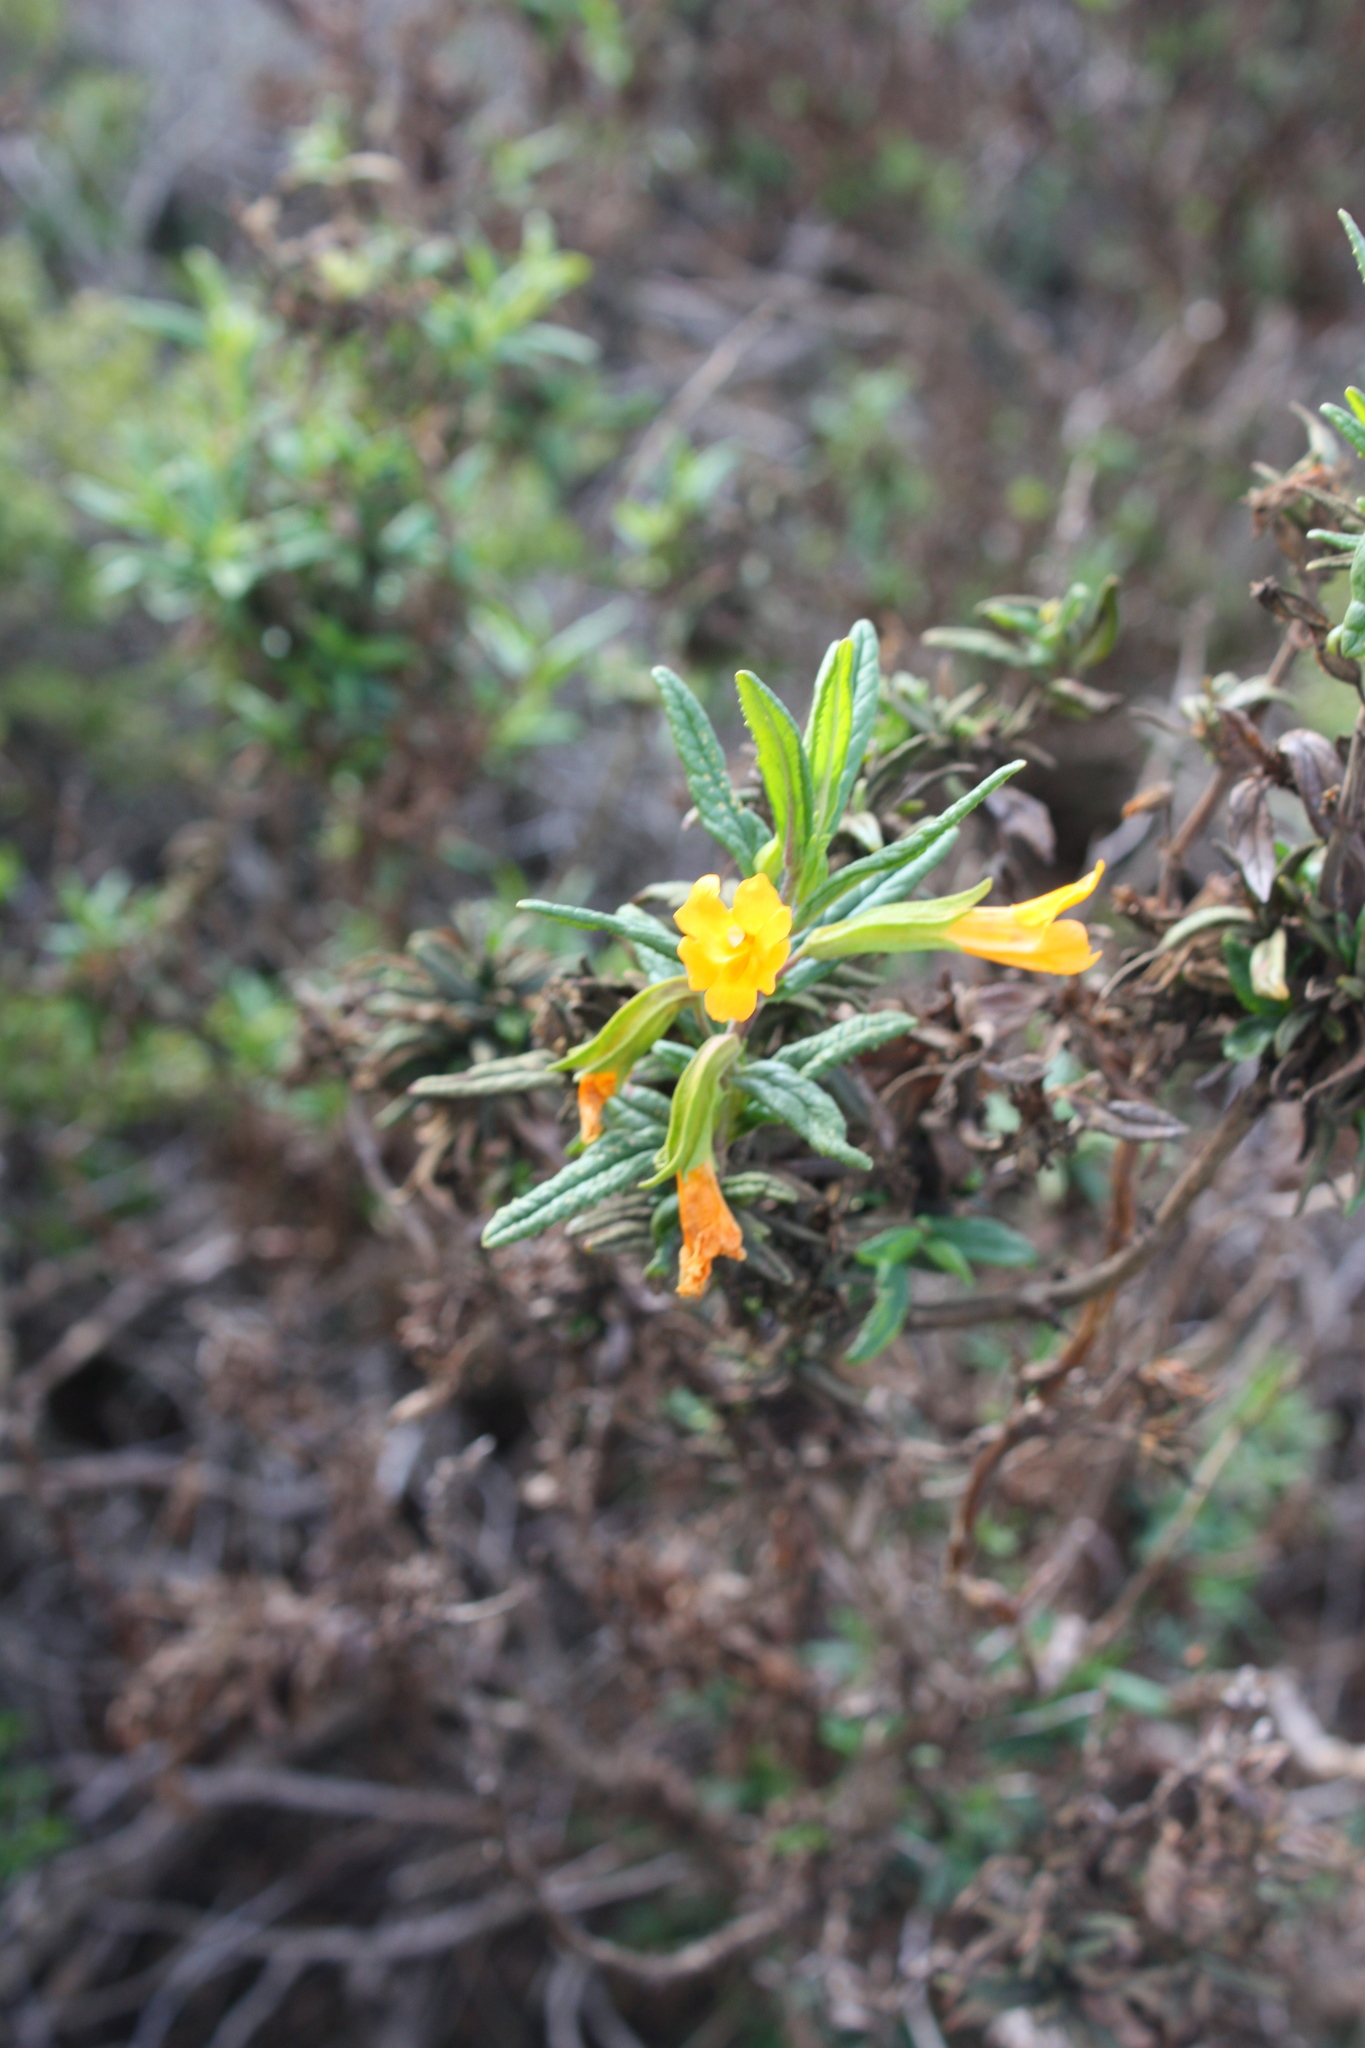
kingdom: Plantae
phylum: Tracheophyta
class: Magnoliopsida
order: Lamiales
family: Phrymaceae
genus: Diplacus
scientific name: Diplacus aurantiacus
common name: Bush monkey-flower
